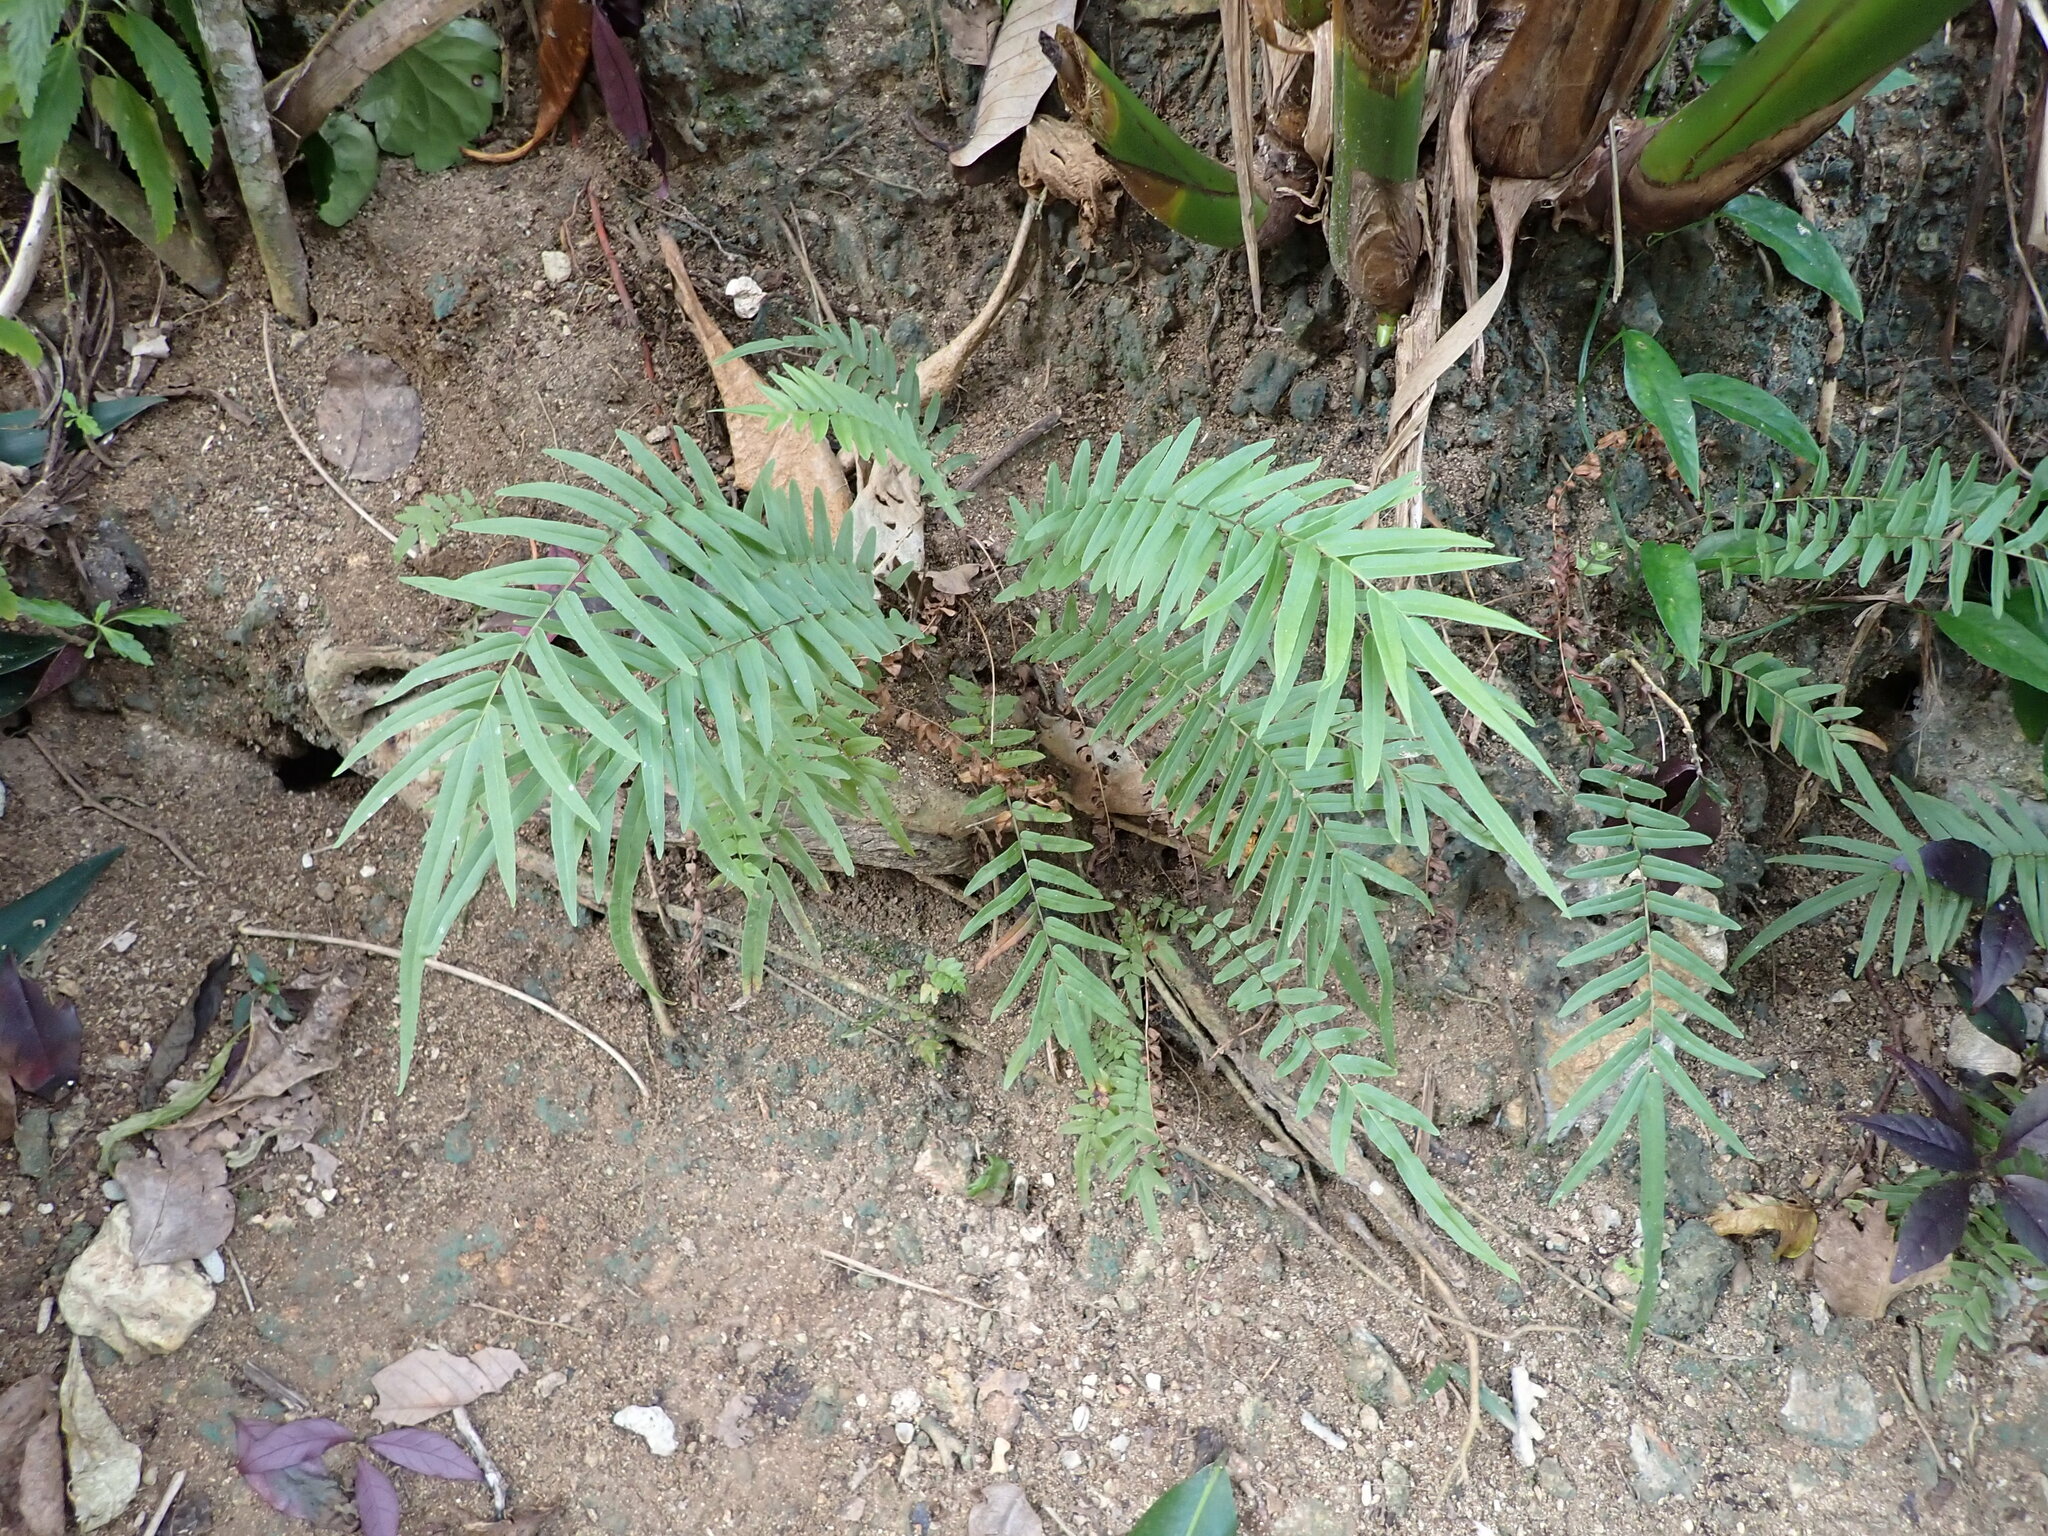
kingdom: Plantae
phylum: Tracheophyta
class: Polypodiopsida
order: Polypodiales
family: Pteridaceae
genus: Pteris
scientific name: Pteris vittata
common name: Ladder brake
